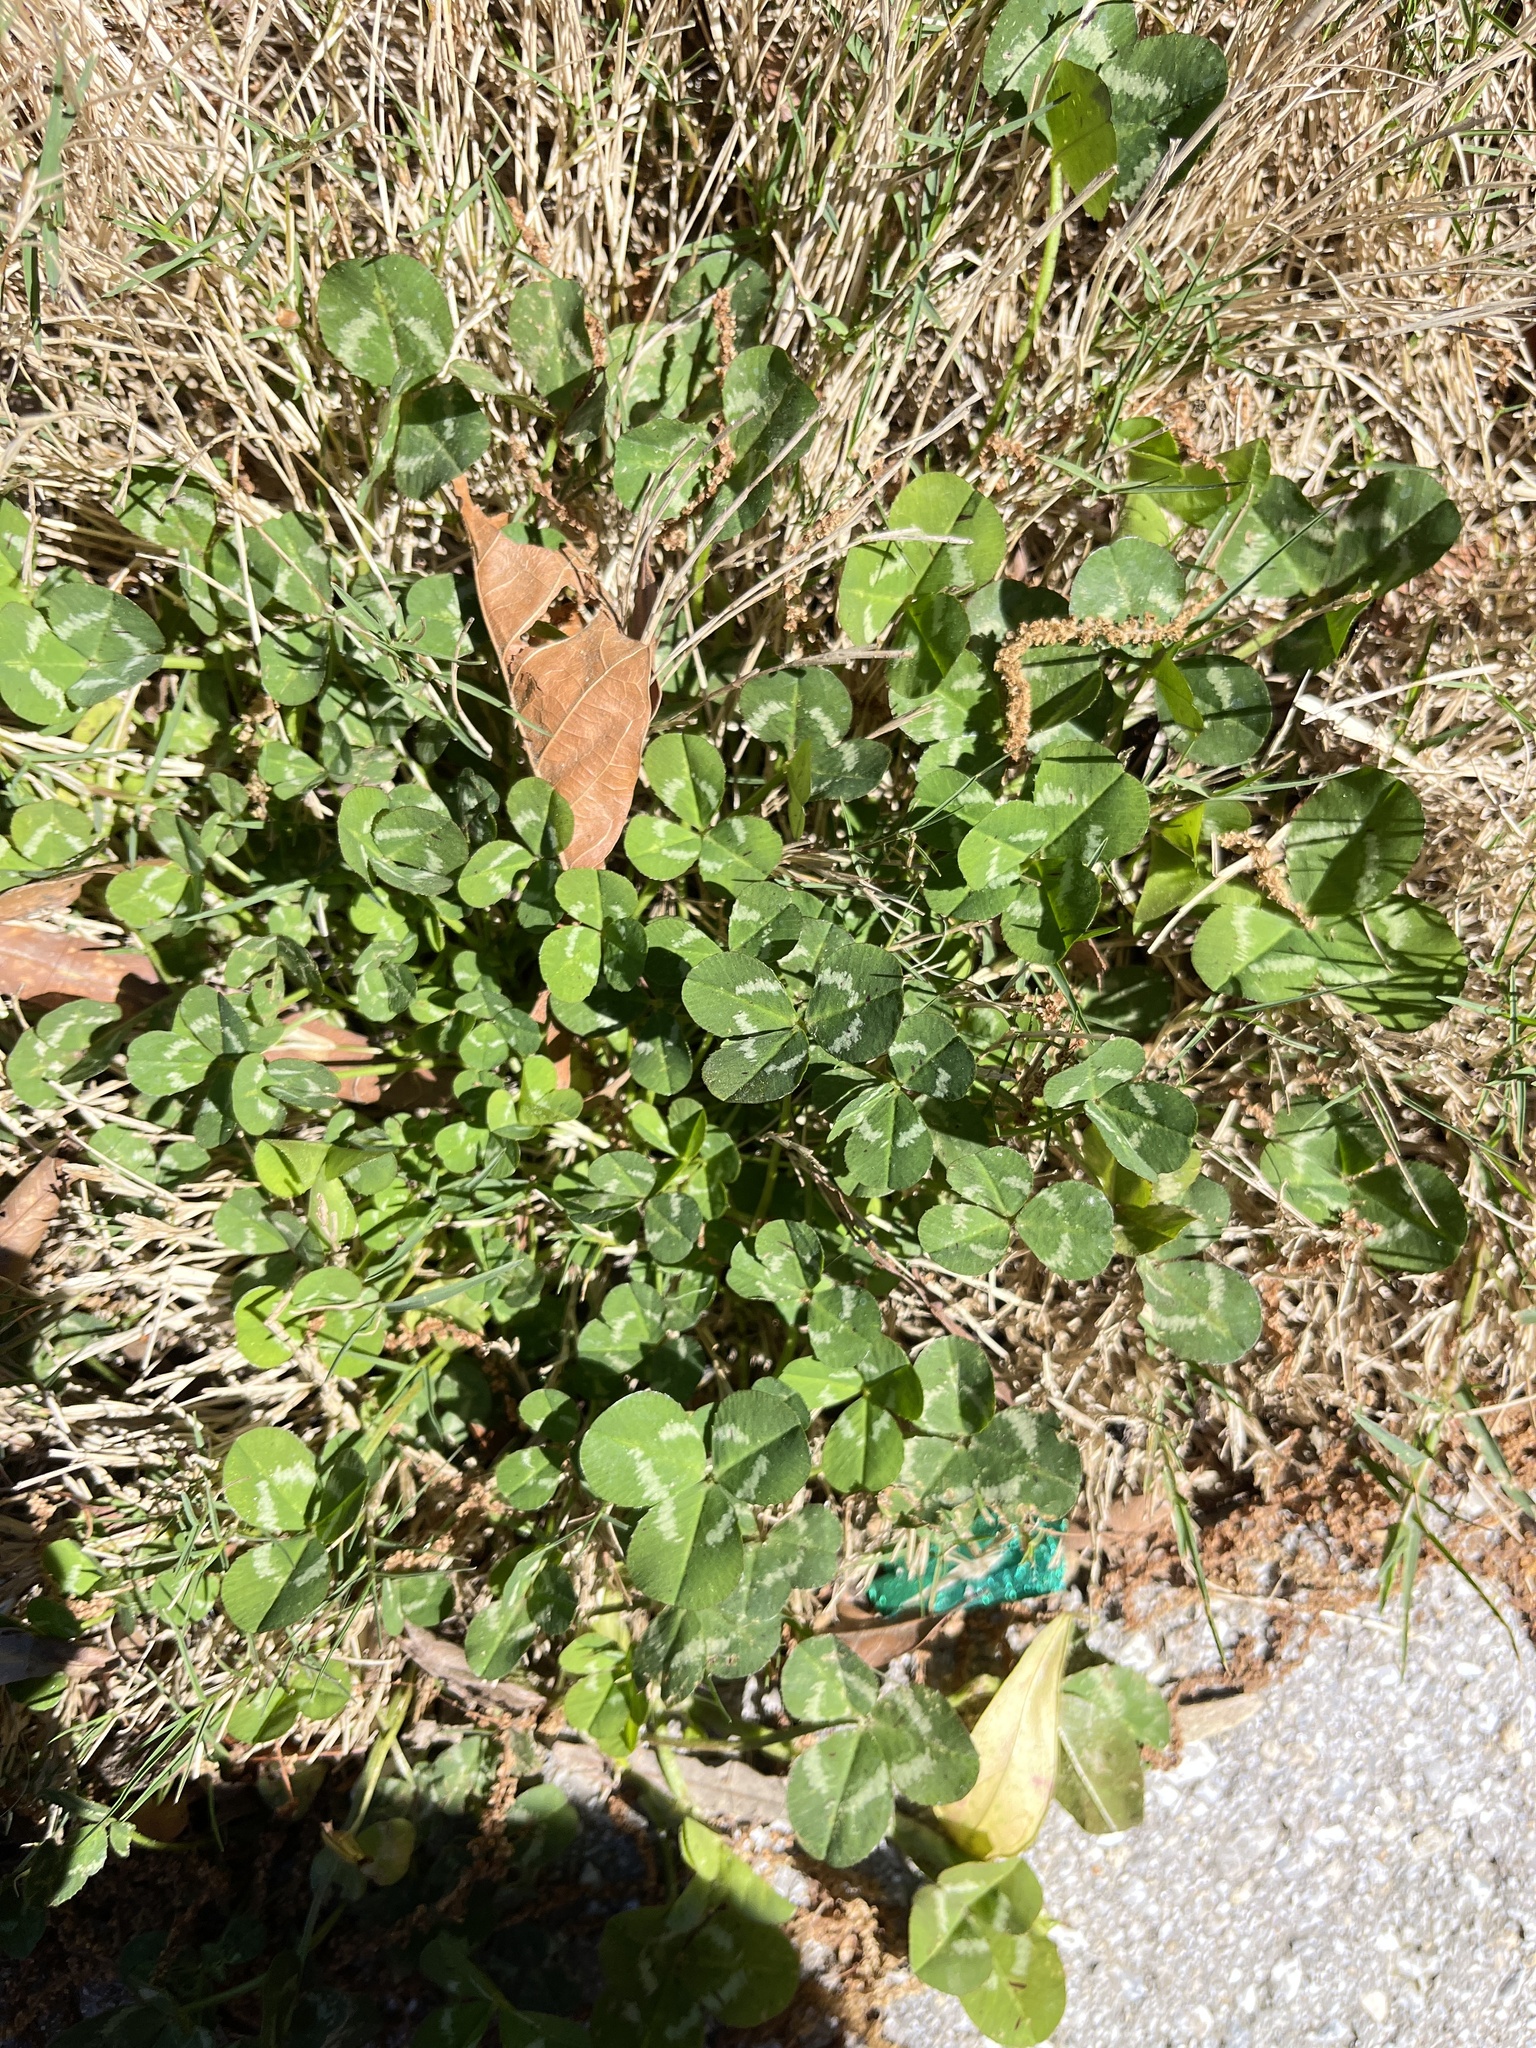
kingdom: Plantae
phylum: Tracheophyta
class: Magnoliopsida
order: Fabales
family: Fabaceae
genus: Trifolium
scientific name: Trifolium repens
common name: White clover
